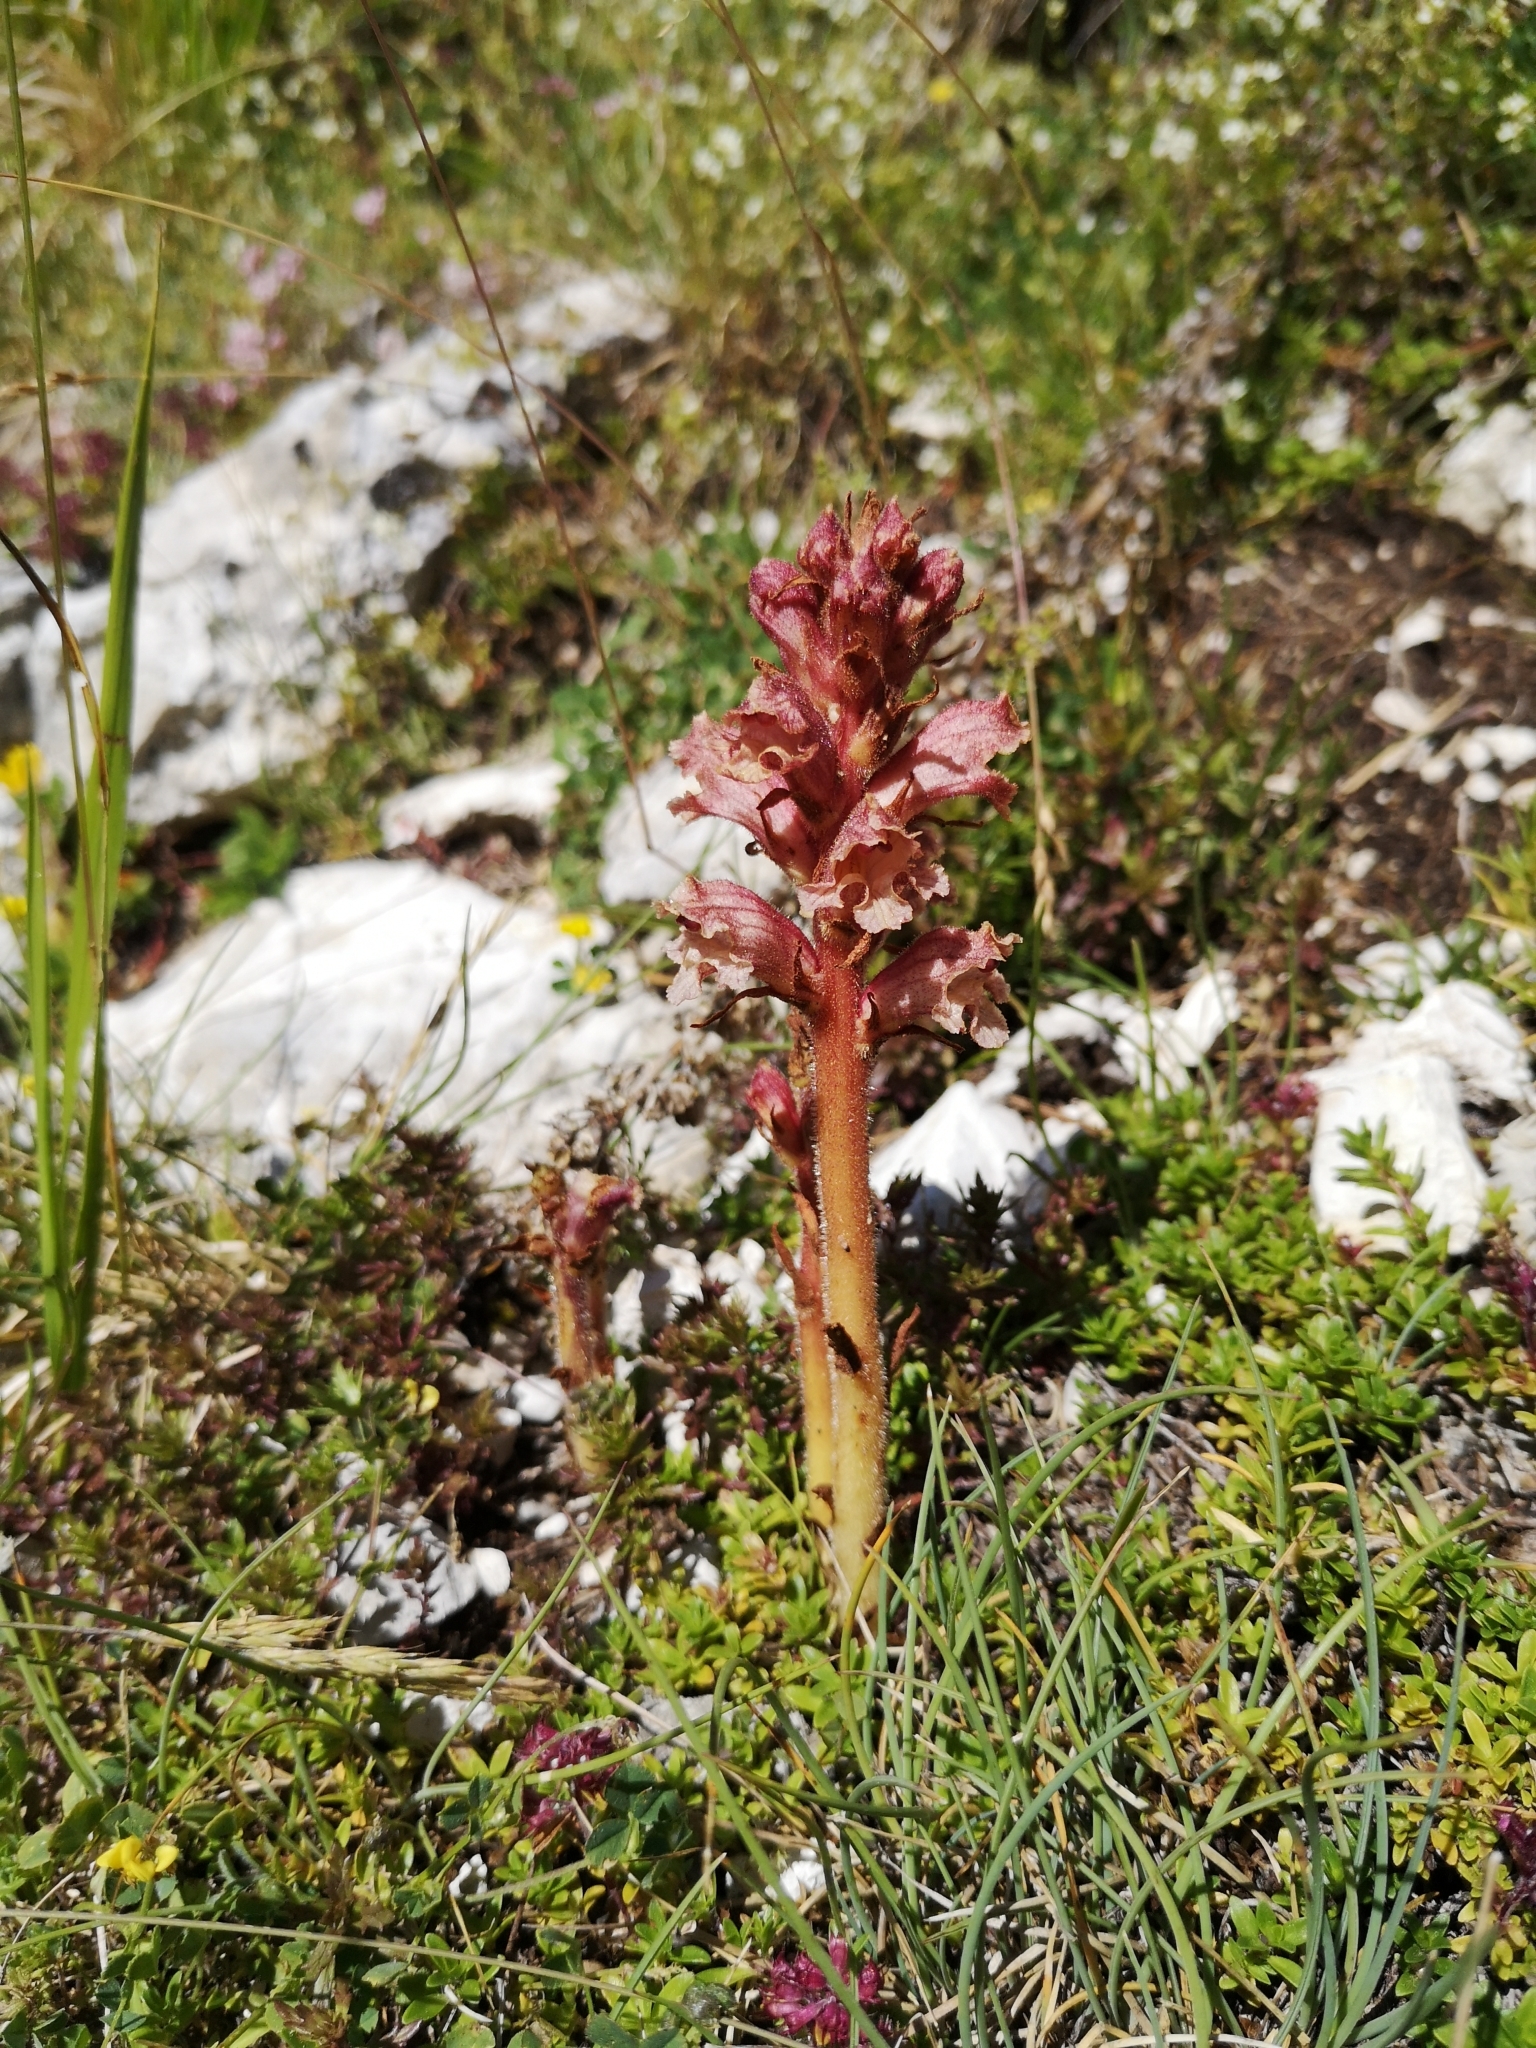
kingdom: Plantae
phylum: Tracheophyta
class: Magnoliopsida
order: Lamiales
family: Orobanchaceae
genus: Orobanche
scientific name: Orobanche alba
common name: Thyme broomrape
